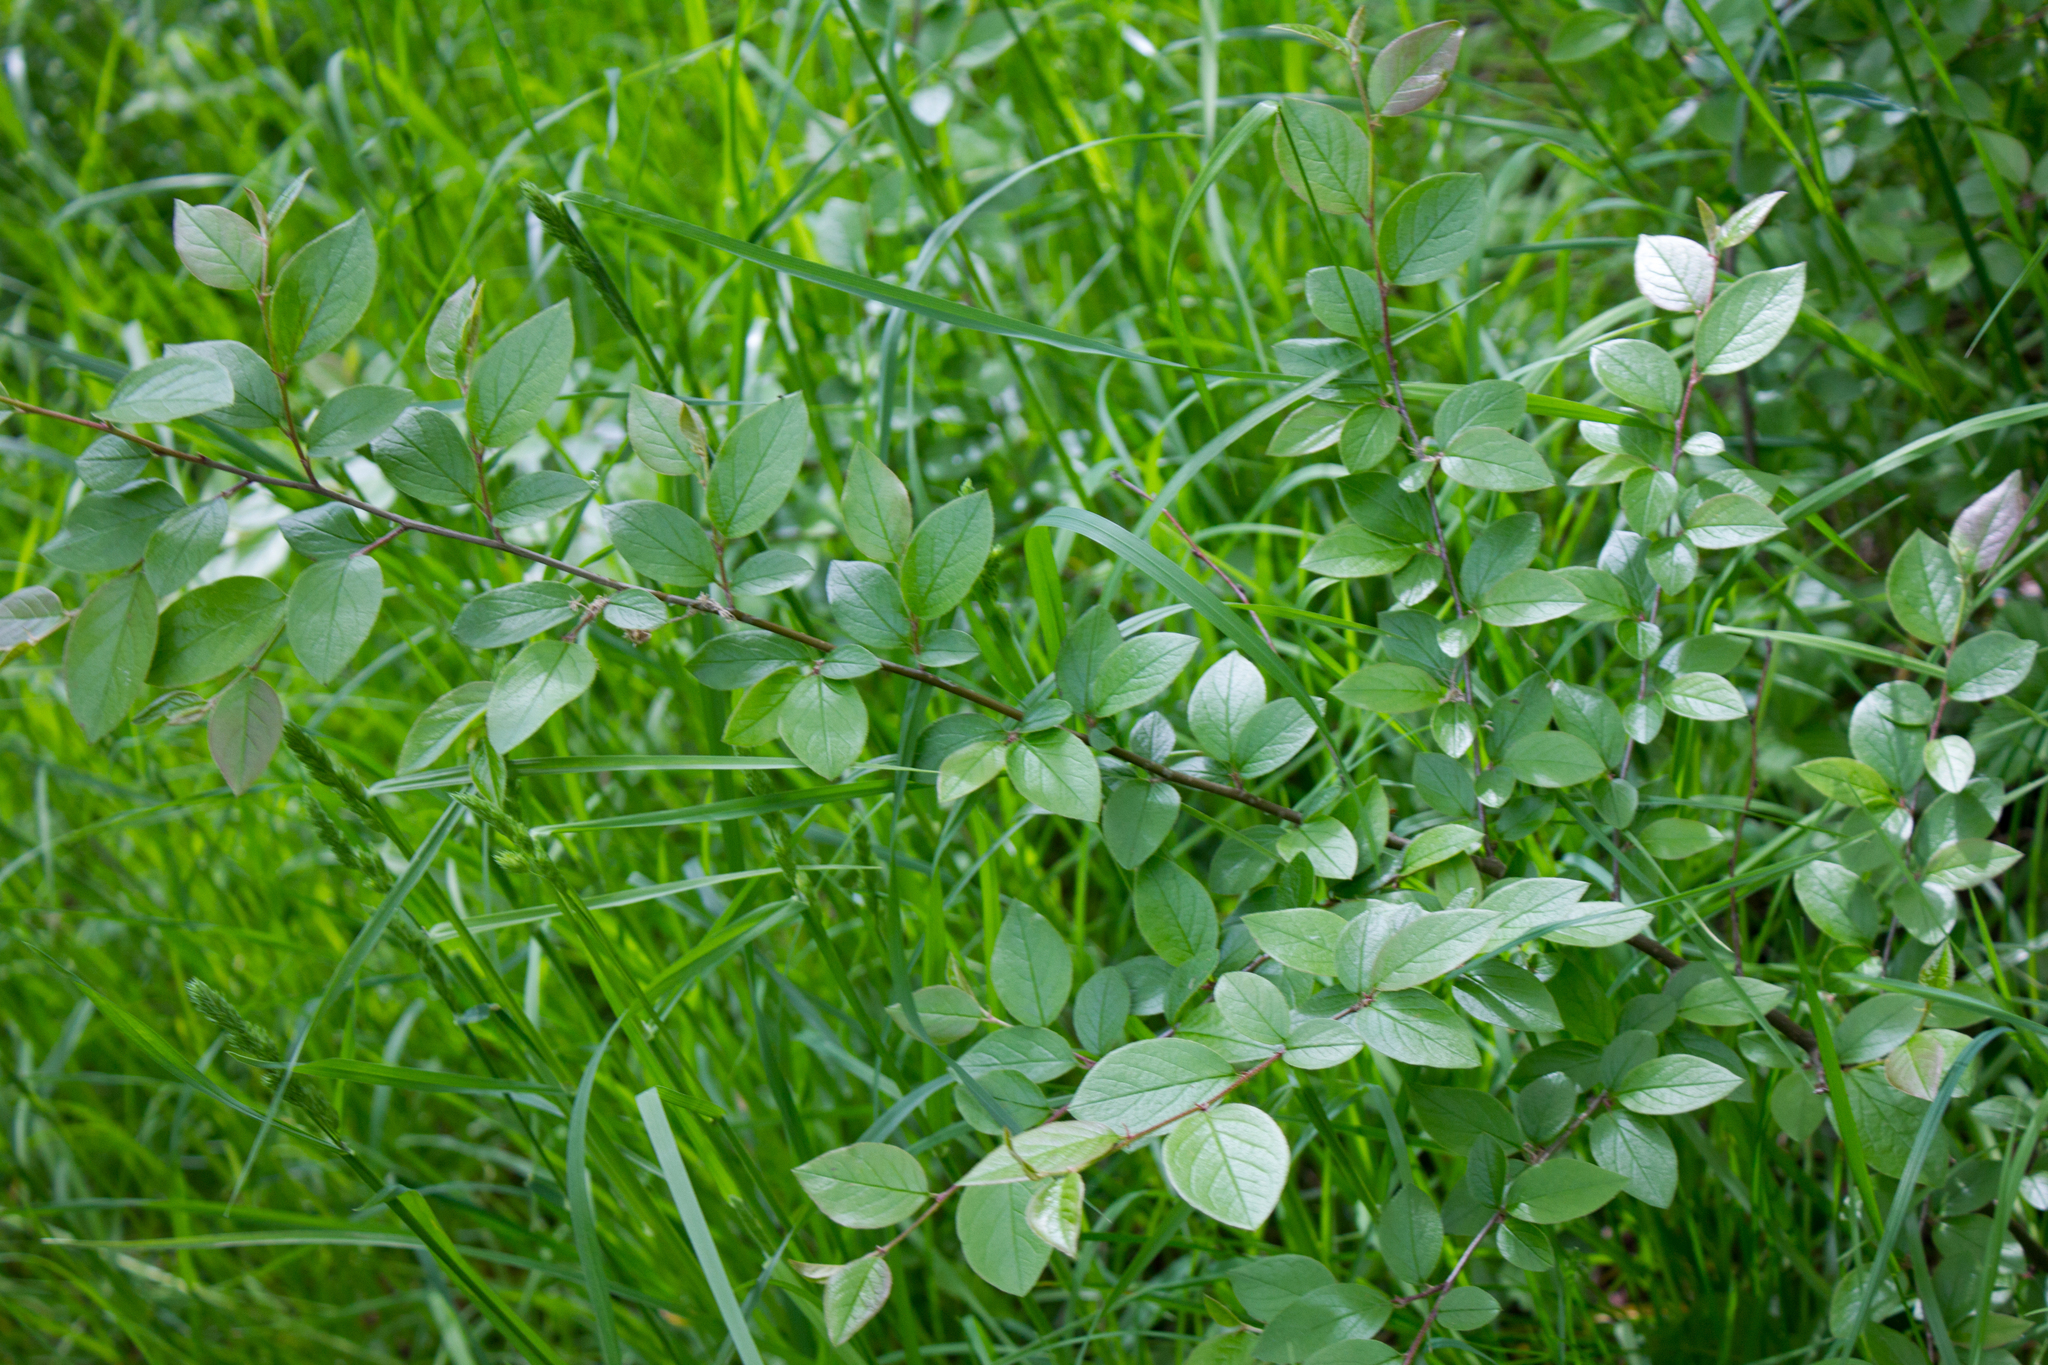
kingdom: Plantae
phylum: Tracheophyta
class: Magnoliopsida
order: Rosales
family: Rosaceae
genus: Cotoneaster
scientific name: Cotoneaster acutifolius
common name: Peking cotoneaster
